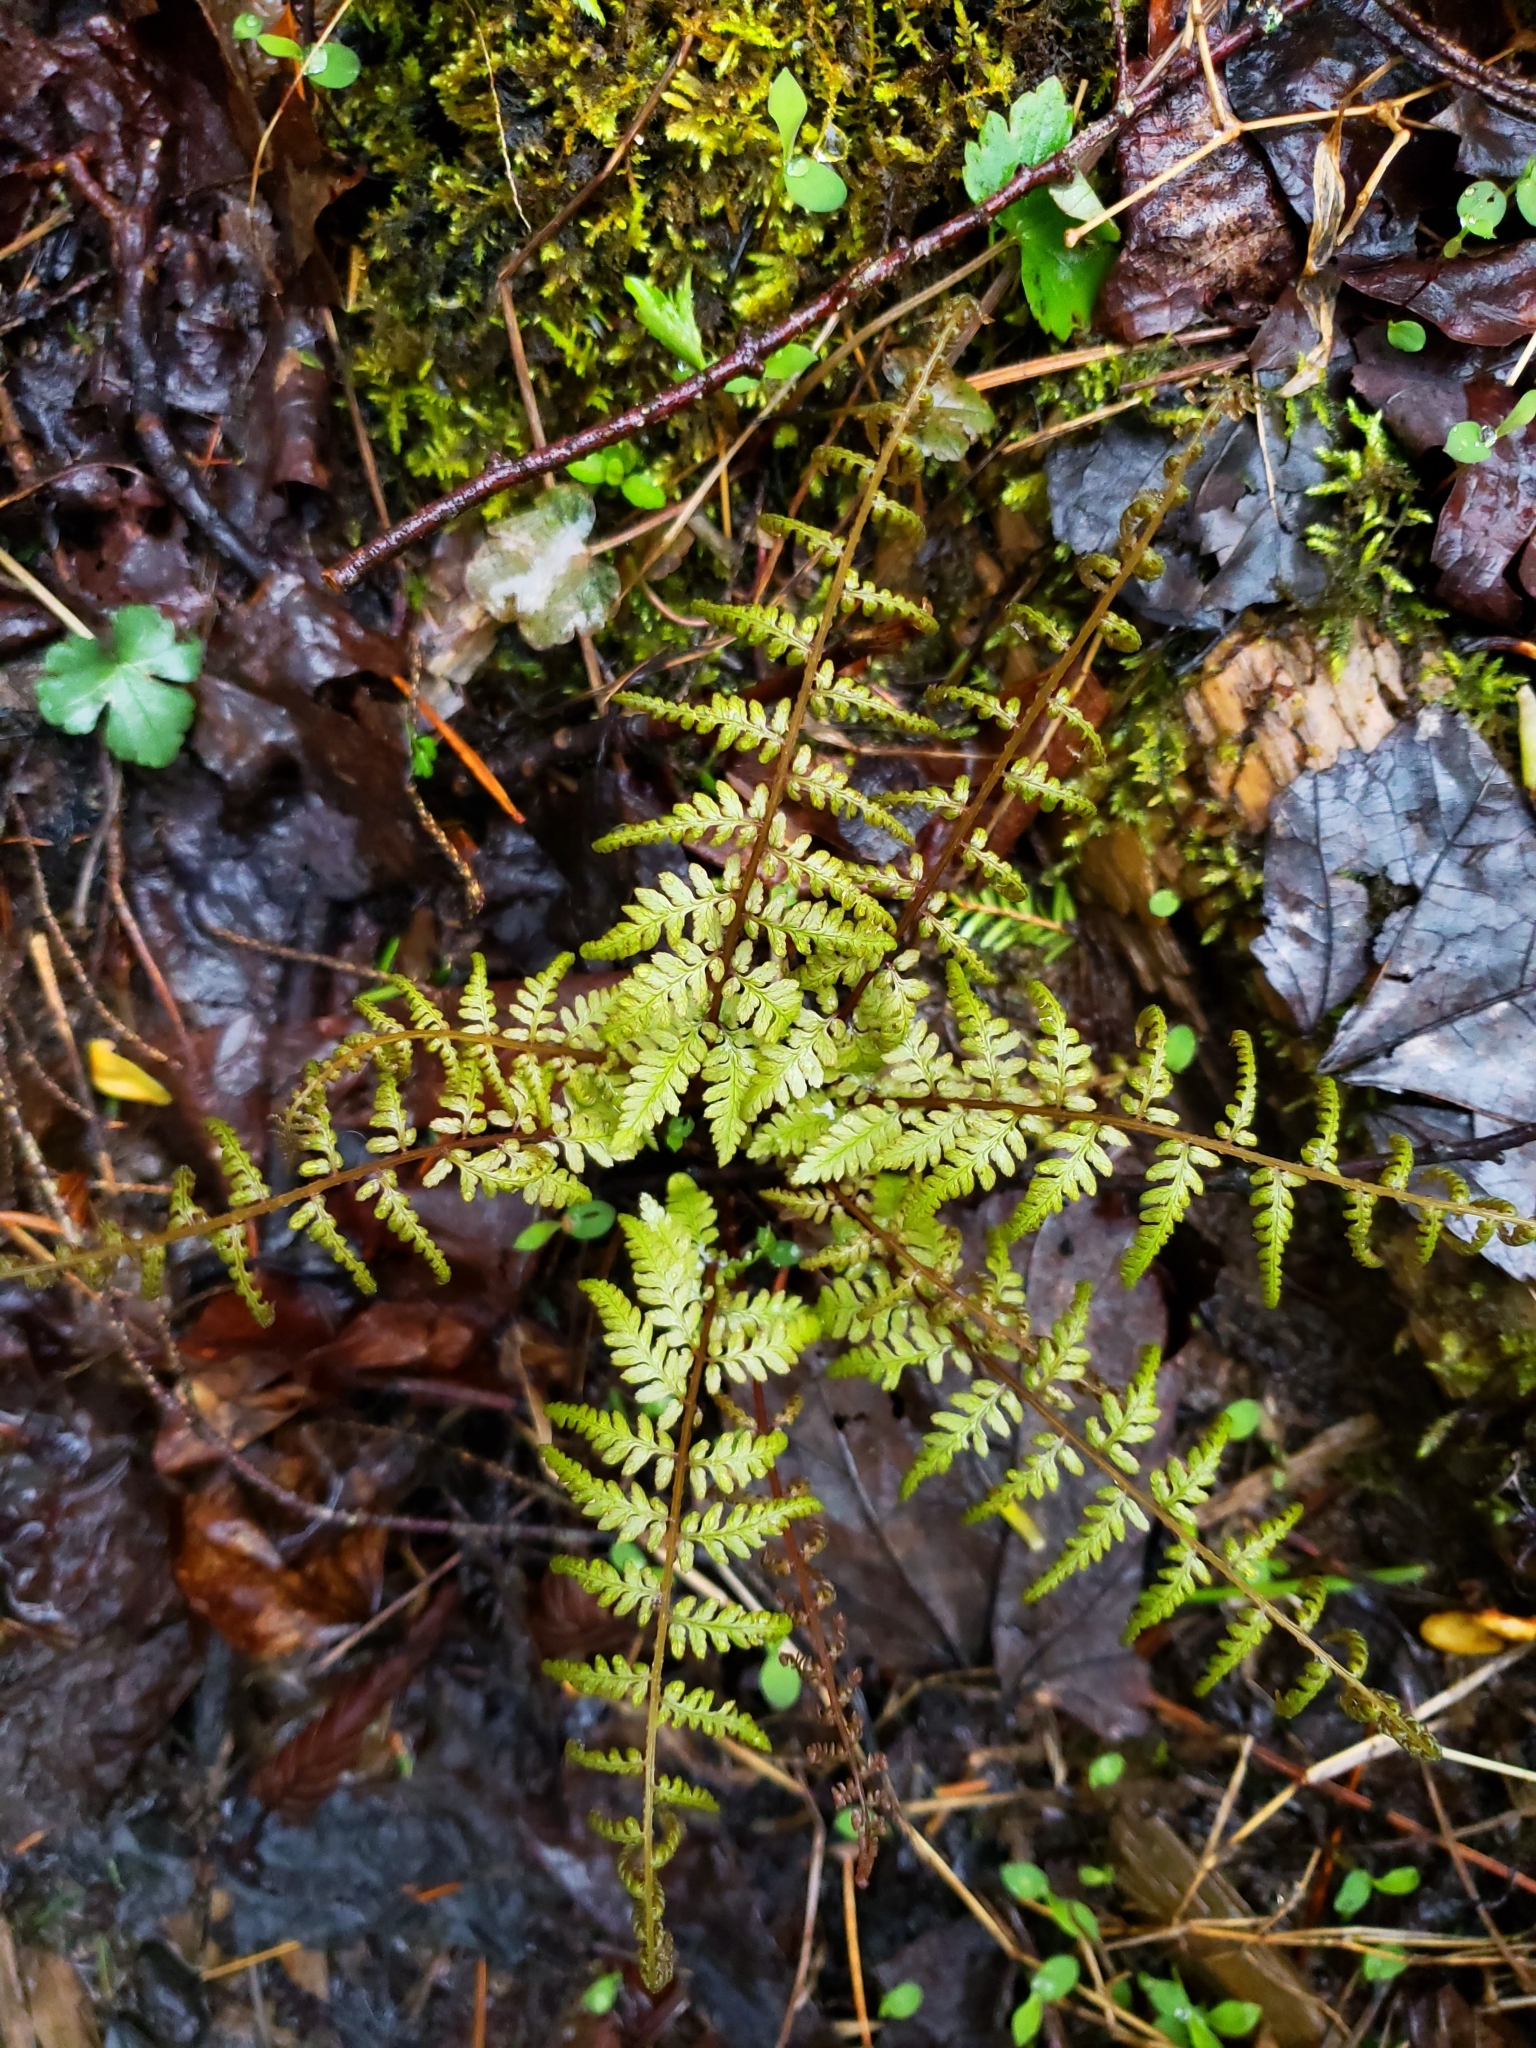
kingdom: Plantae
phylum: Tracheophyta
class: Polypodiopsida
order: Polypodiales
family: Cystopteridaceae
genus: Cystopteris
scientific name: Cystopteris bulbifera
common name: Bulblet bladder fern
